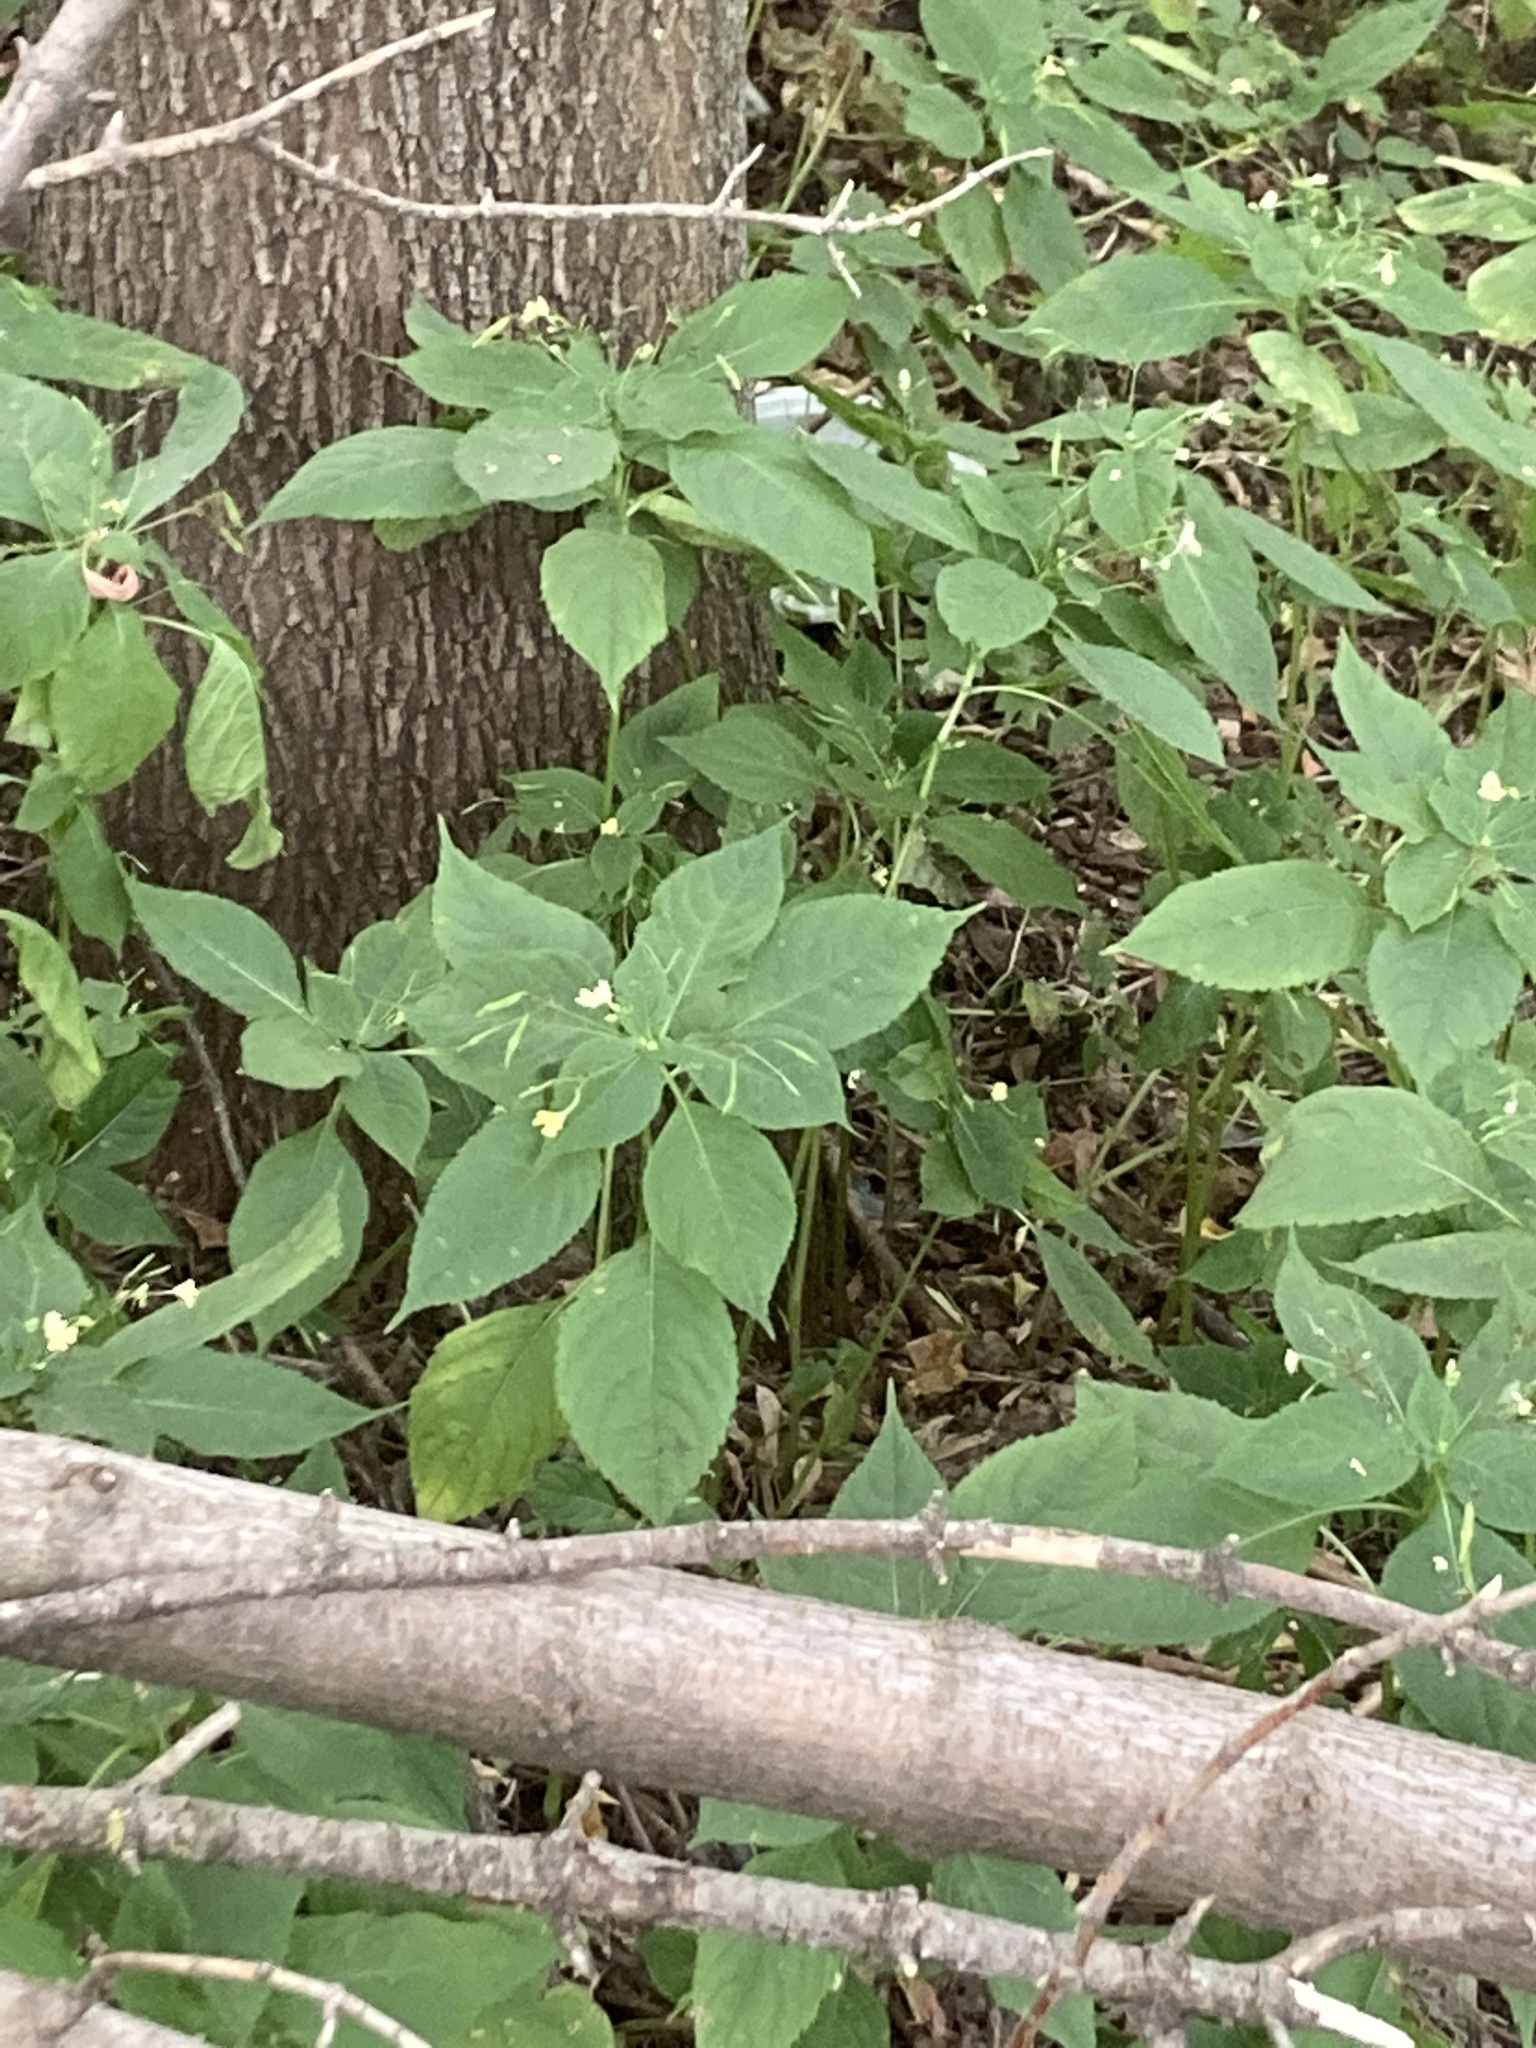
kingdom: Plantae
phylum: Tracheophyta
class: Magnoliopsida
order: Ericales
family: Balsaminaceae
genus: Impatiens
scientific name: Impatiens parviflora
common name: Small balsam
